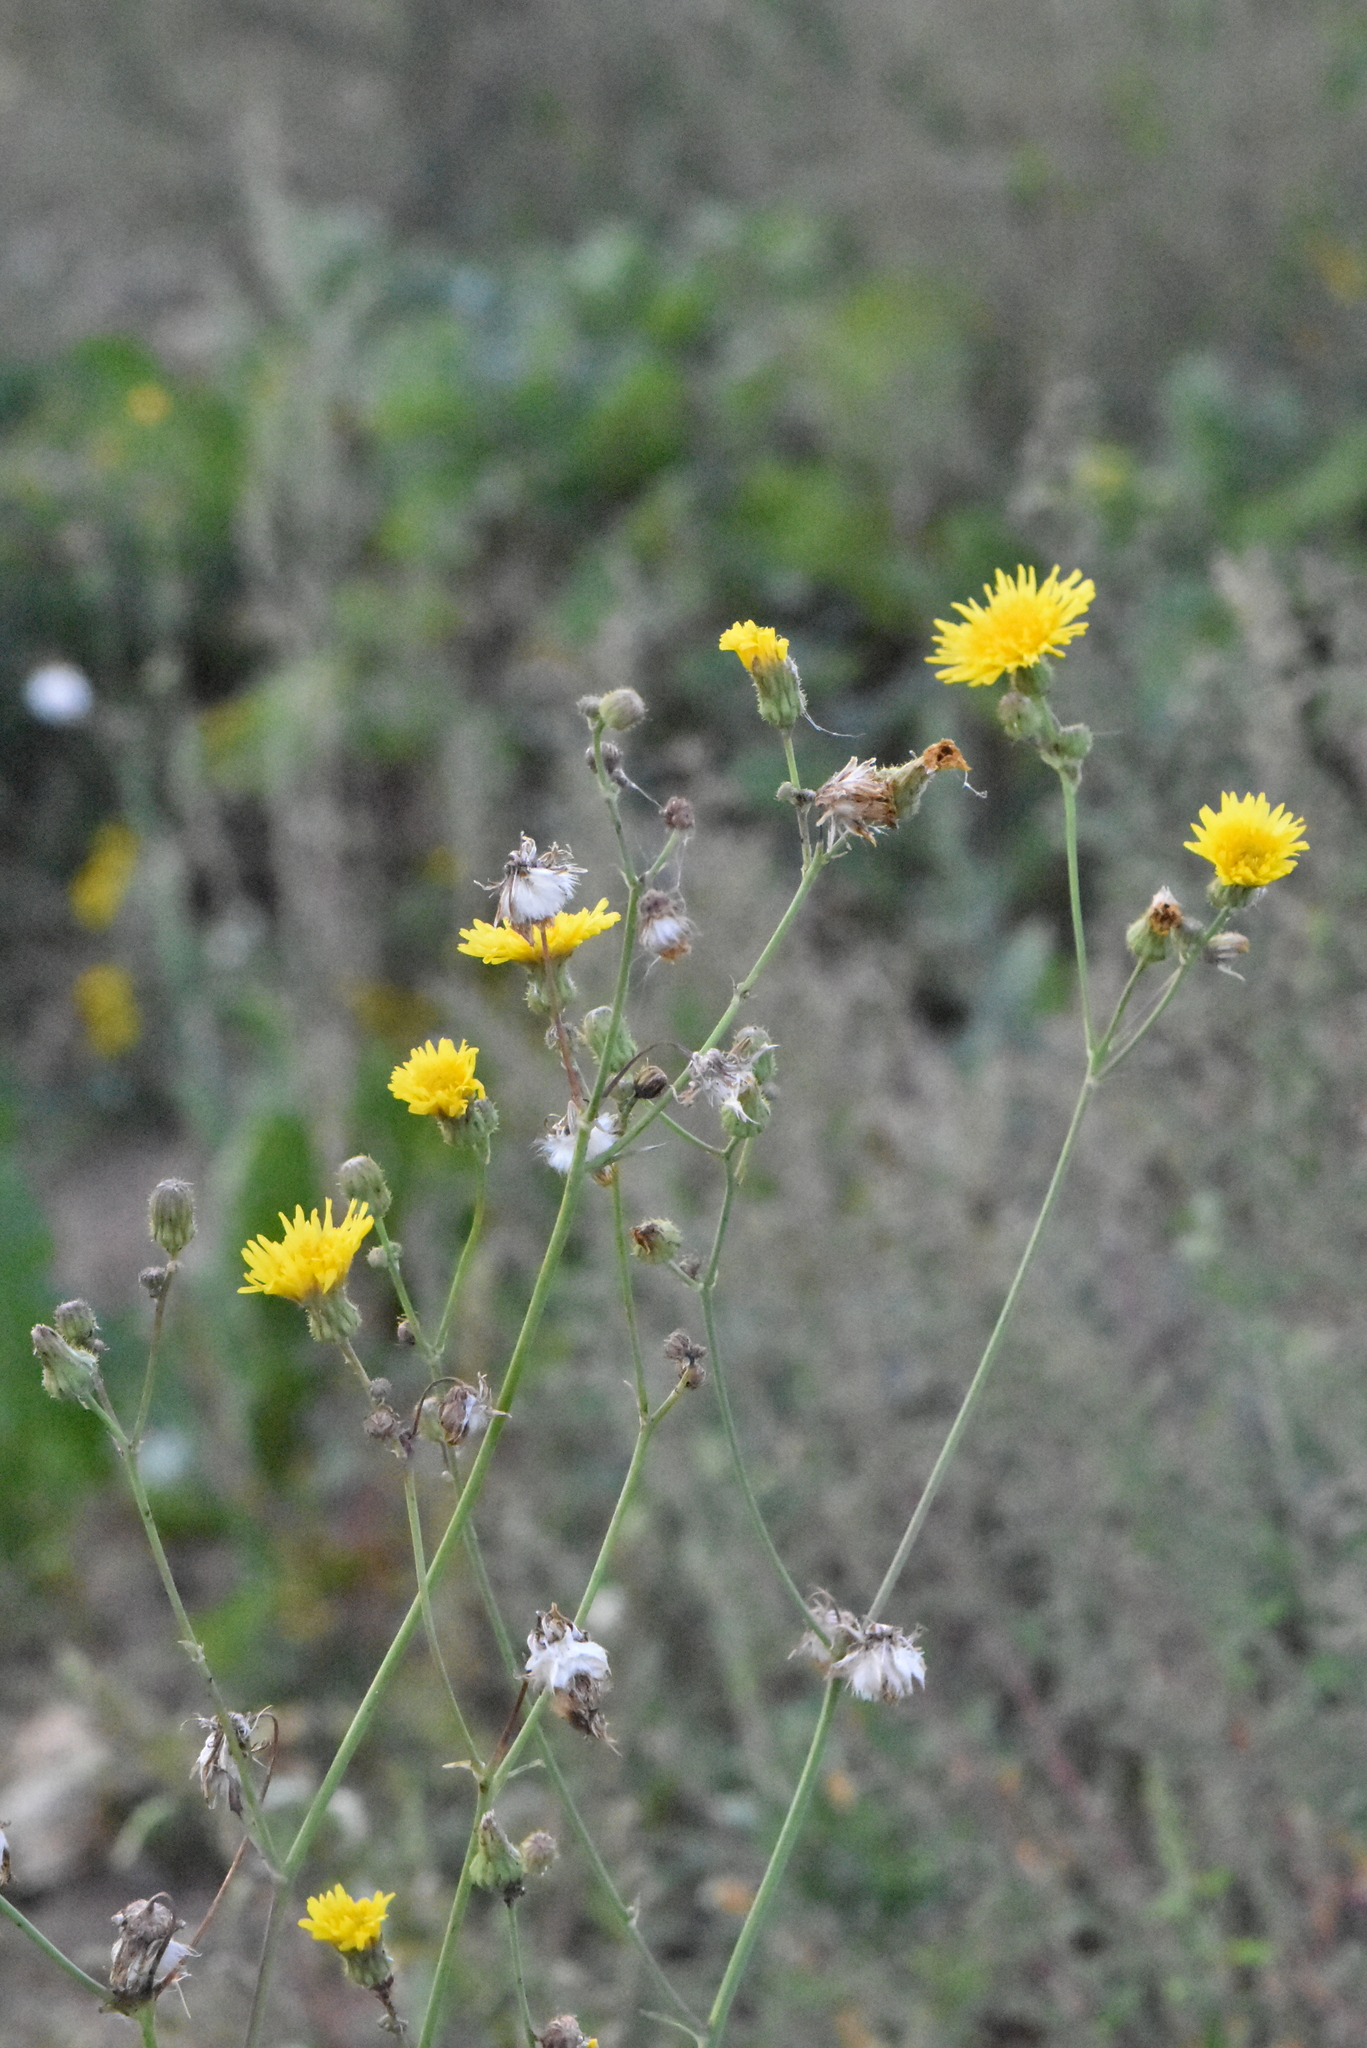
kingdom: Plantae
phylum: Tracheophyta
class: Magnoliopsida
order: Asterales
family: Asteraceae
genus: Sonchus
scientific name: Sonchus arvensis
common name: Perennial sow-thistle
